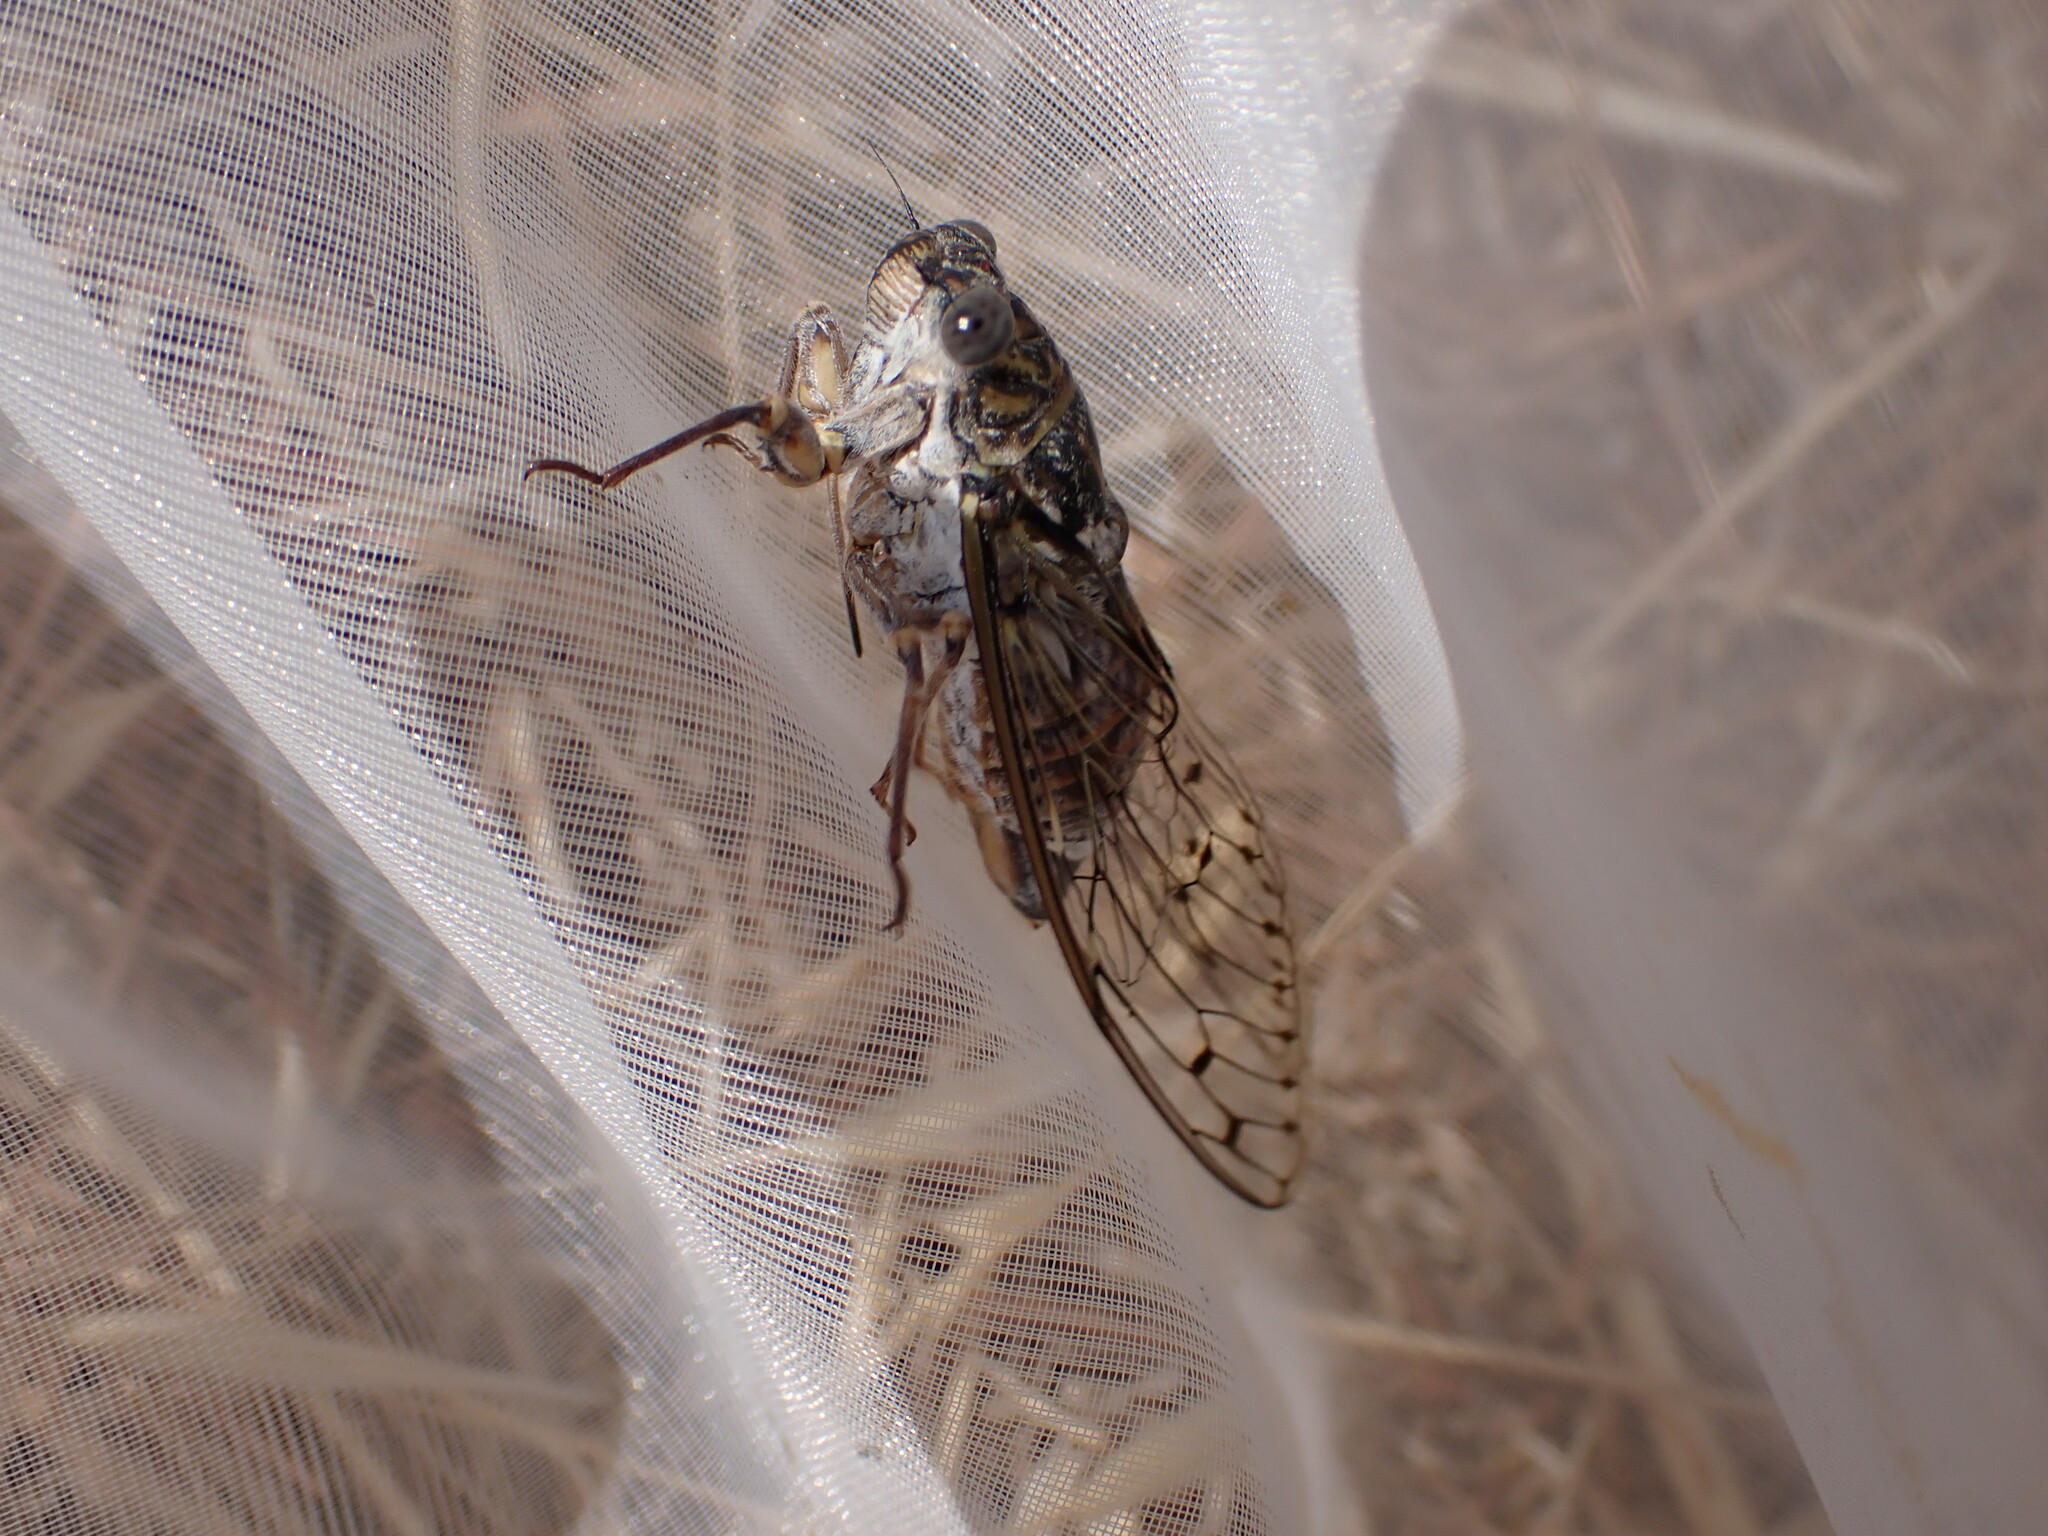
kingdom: Animalia
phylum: Arthropoda
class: Insecta
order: Hemiptera
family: Cicadidae
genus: Cicada
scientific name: Cicada orni
